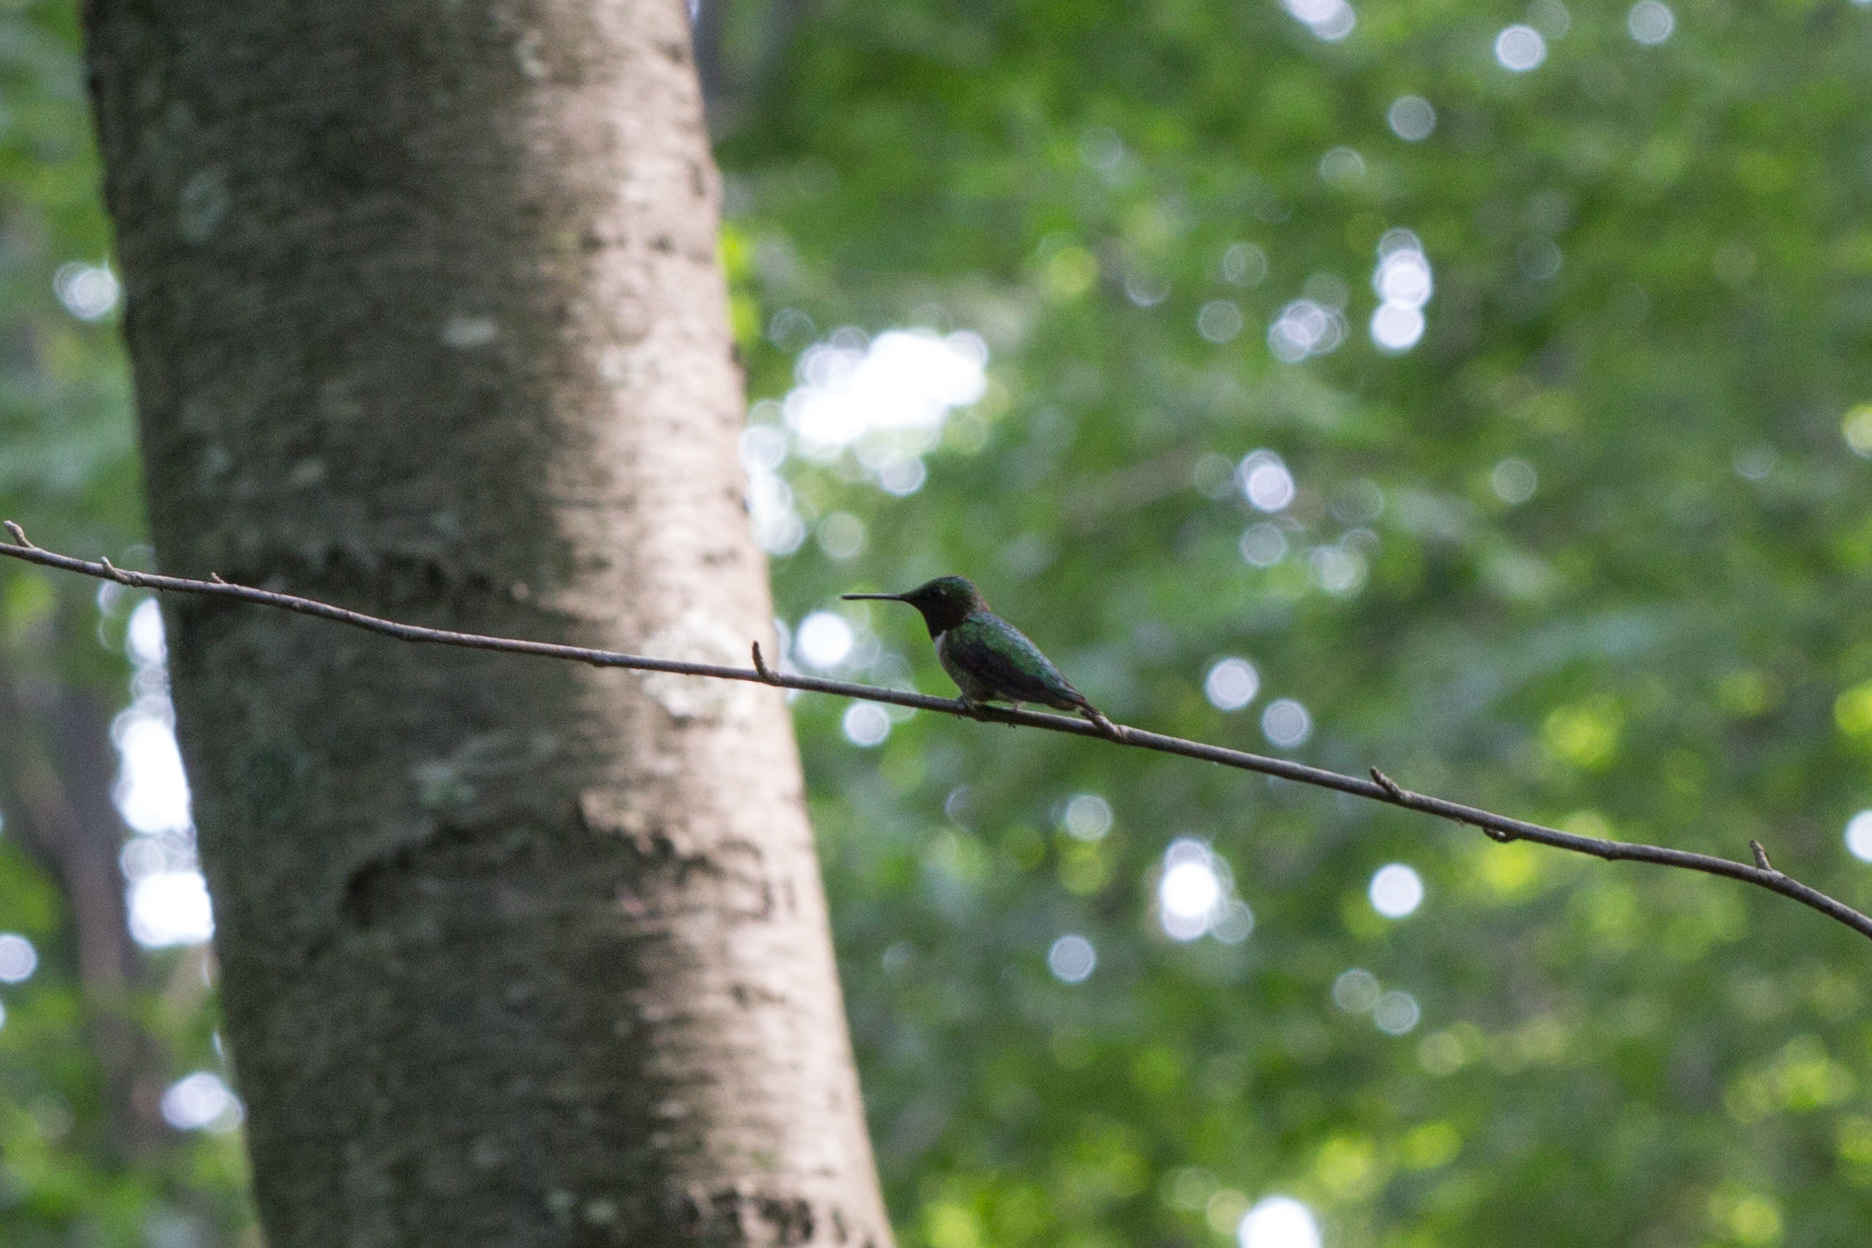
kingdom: Animalia
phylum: Chordata
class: Aves
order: Apodiformes
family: Trochilidae
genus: Archilochus
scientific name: Archilochus colubris
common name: Ruby-throated hummingbird
